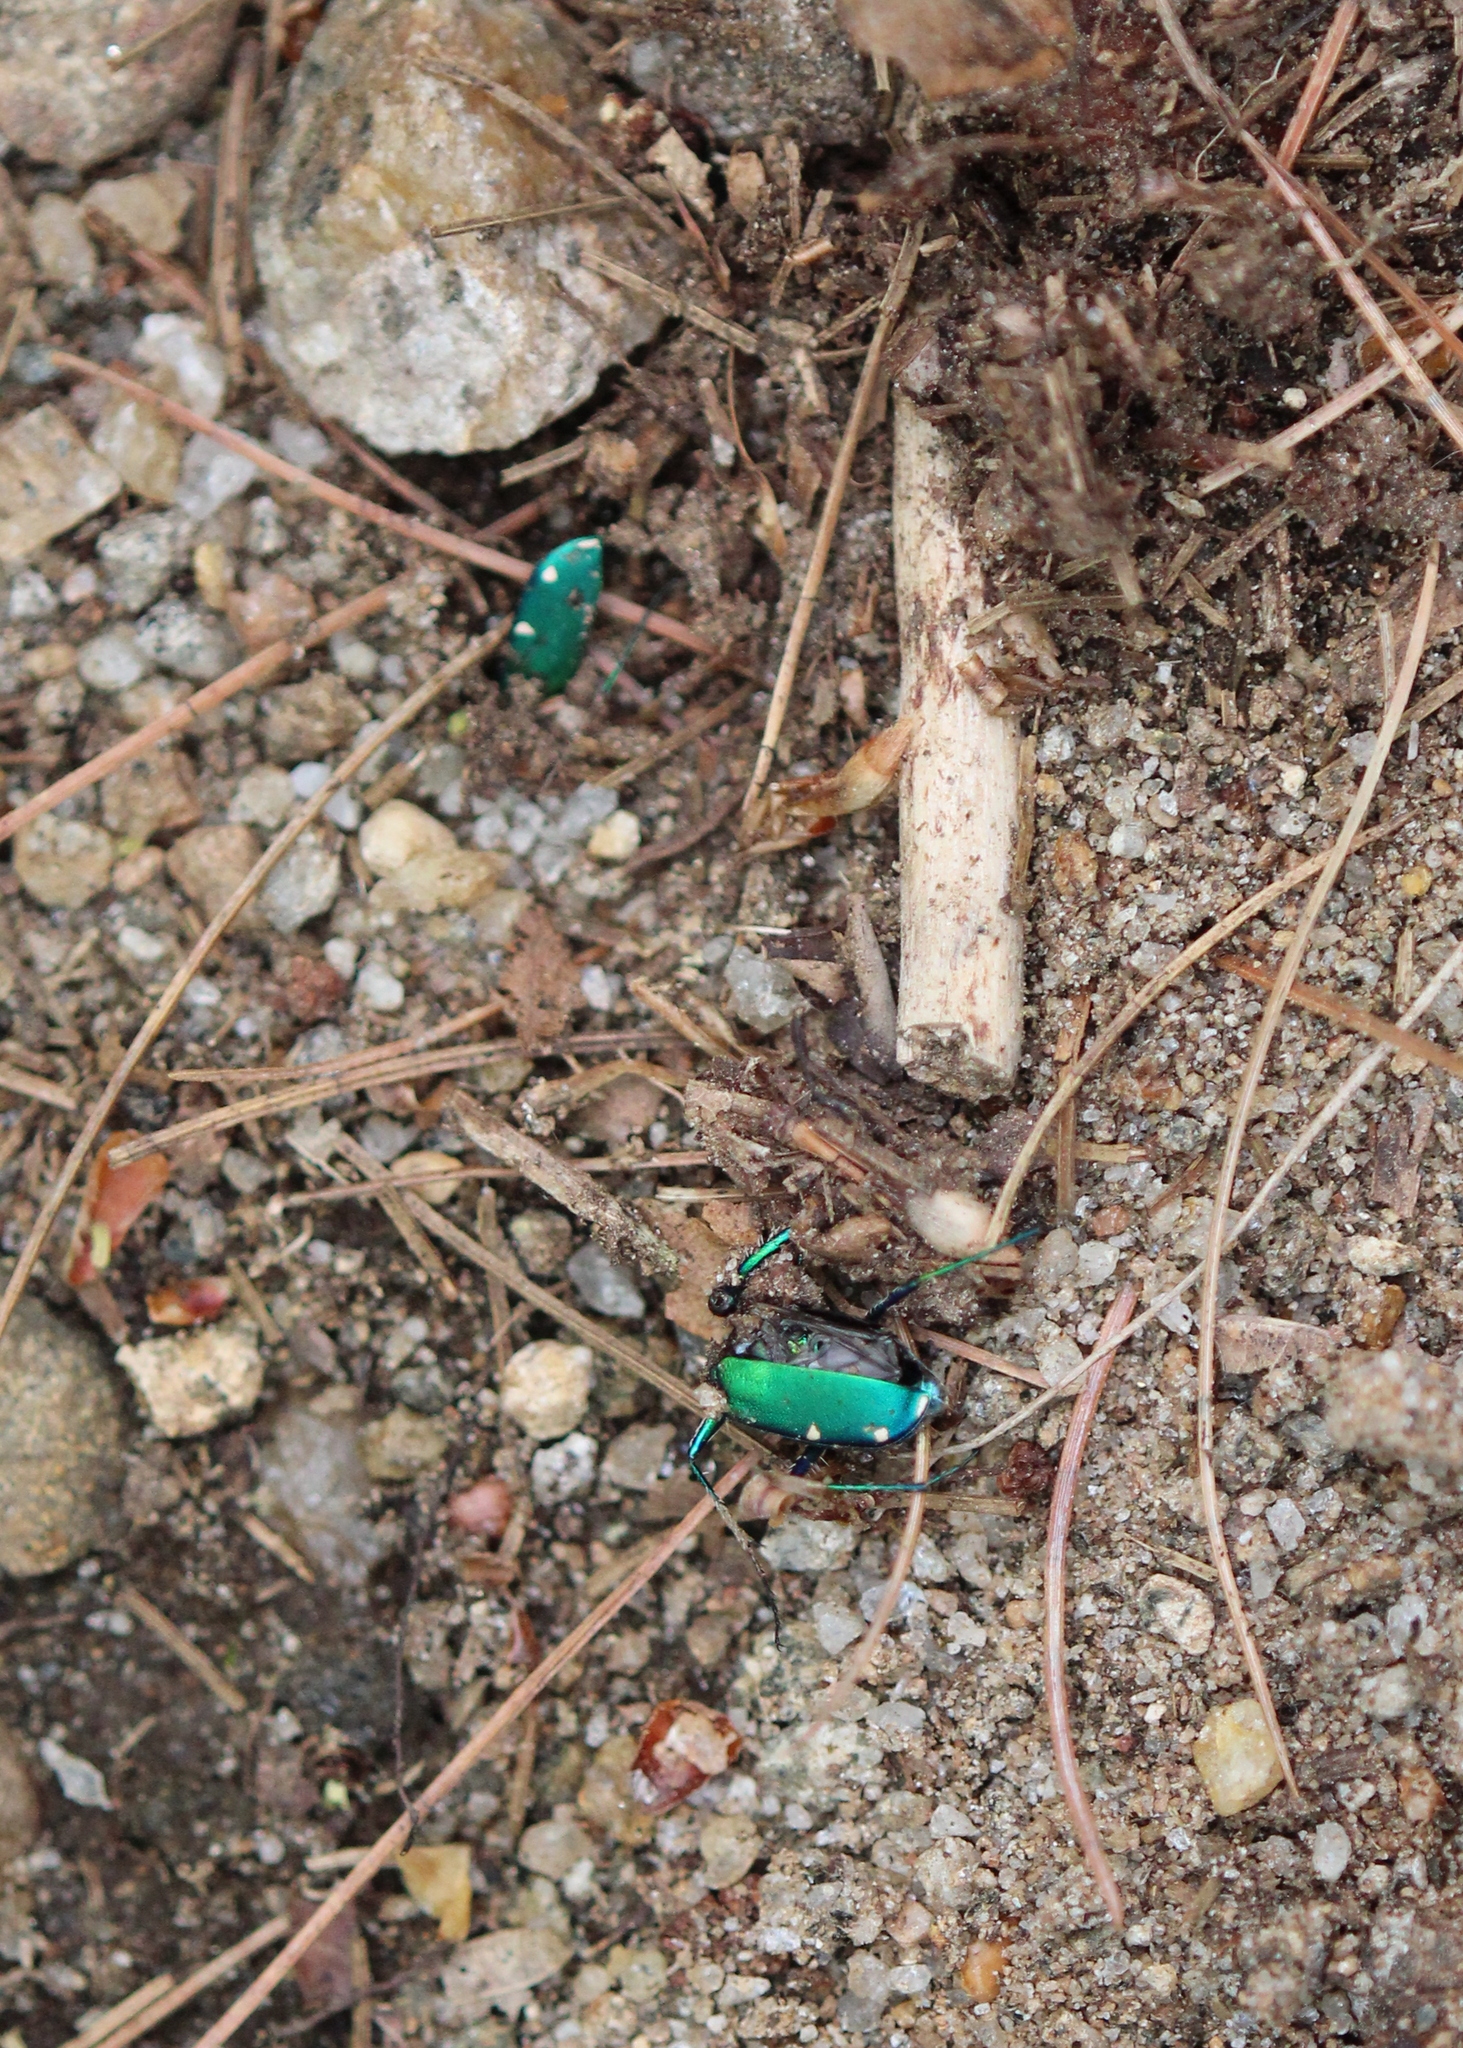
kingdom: Animalia
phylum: Arthropoda
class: Insecta
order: Coleoptera
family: Carabidae
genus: Cicindela
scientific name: Cicindela sexguttata
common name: Six-spotted tiger beetle
